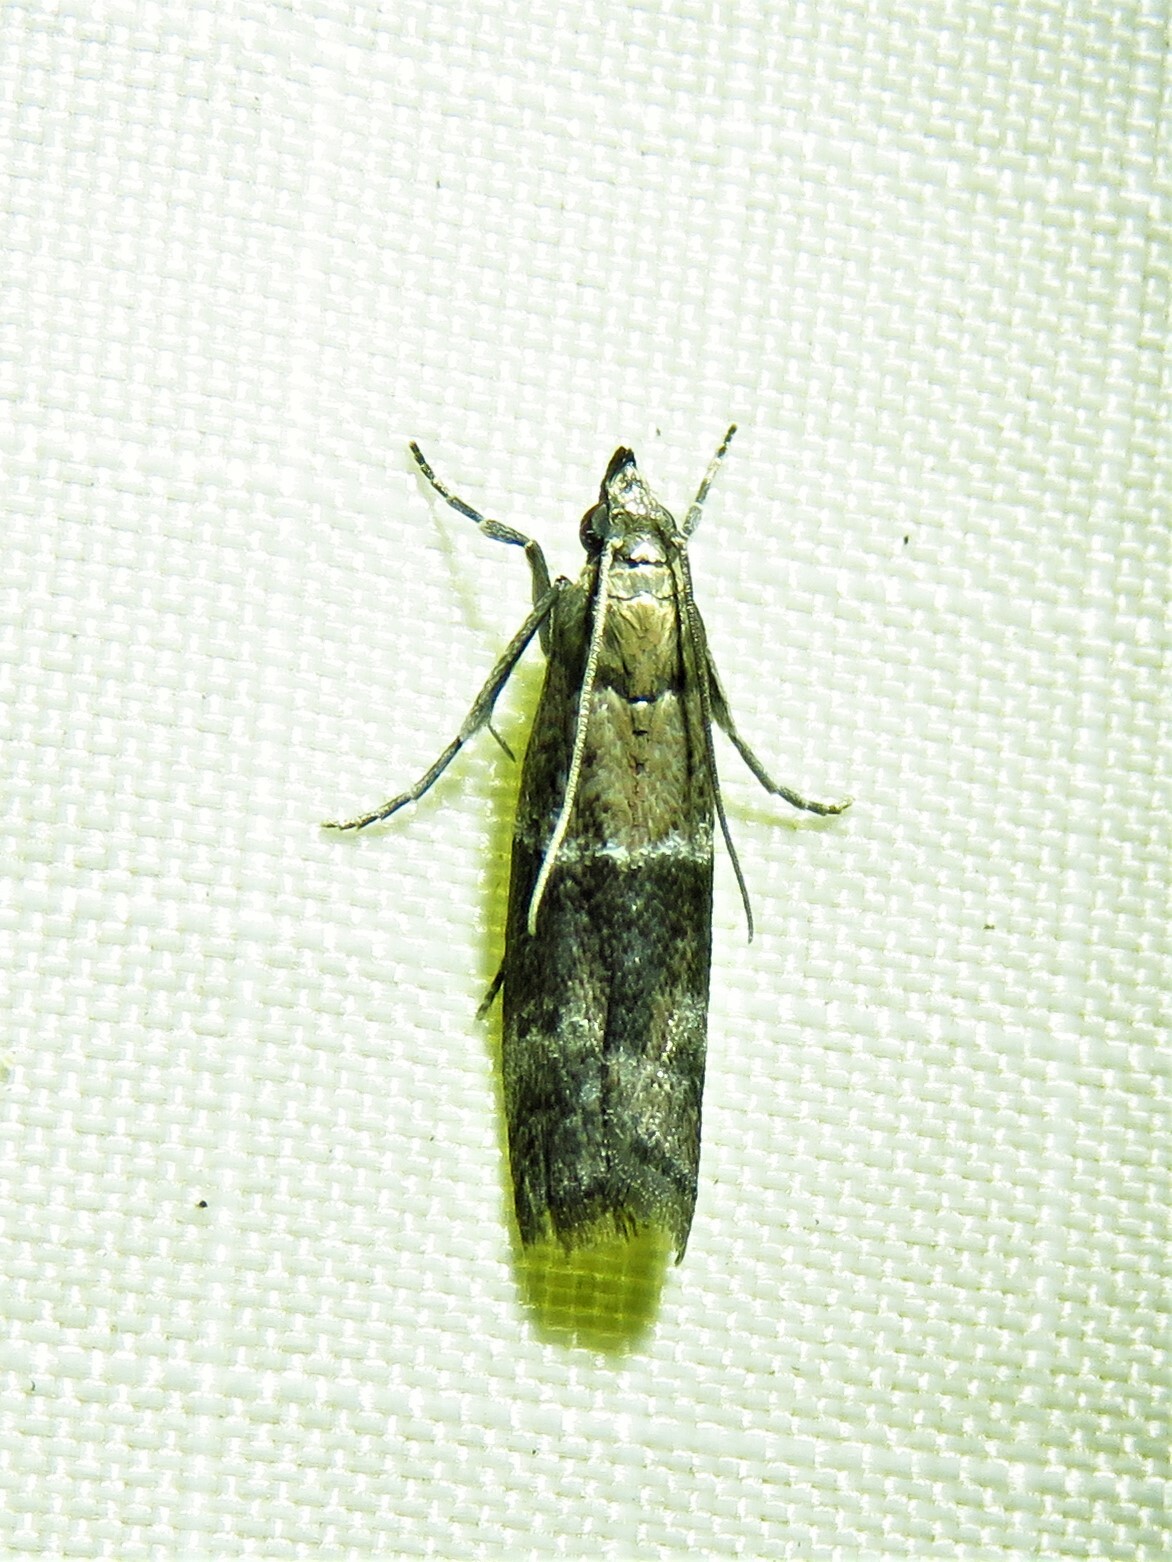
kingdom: Animalia
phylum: Arthropoda
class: Insecta
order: Lepidoptera
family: Pyralidae
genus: Moodna
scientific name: Moodna ostrinella
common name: Darker moodna moth
